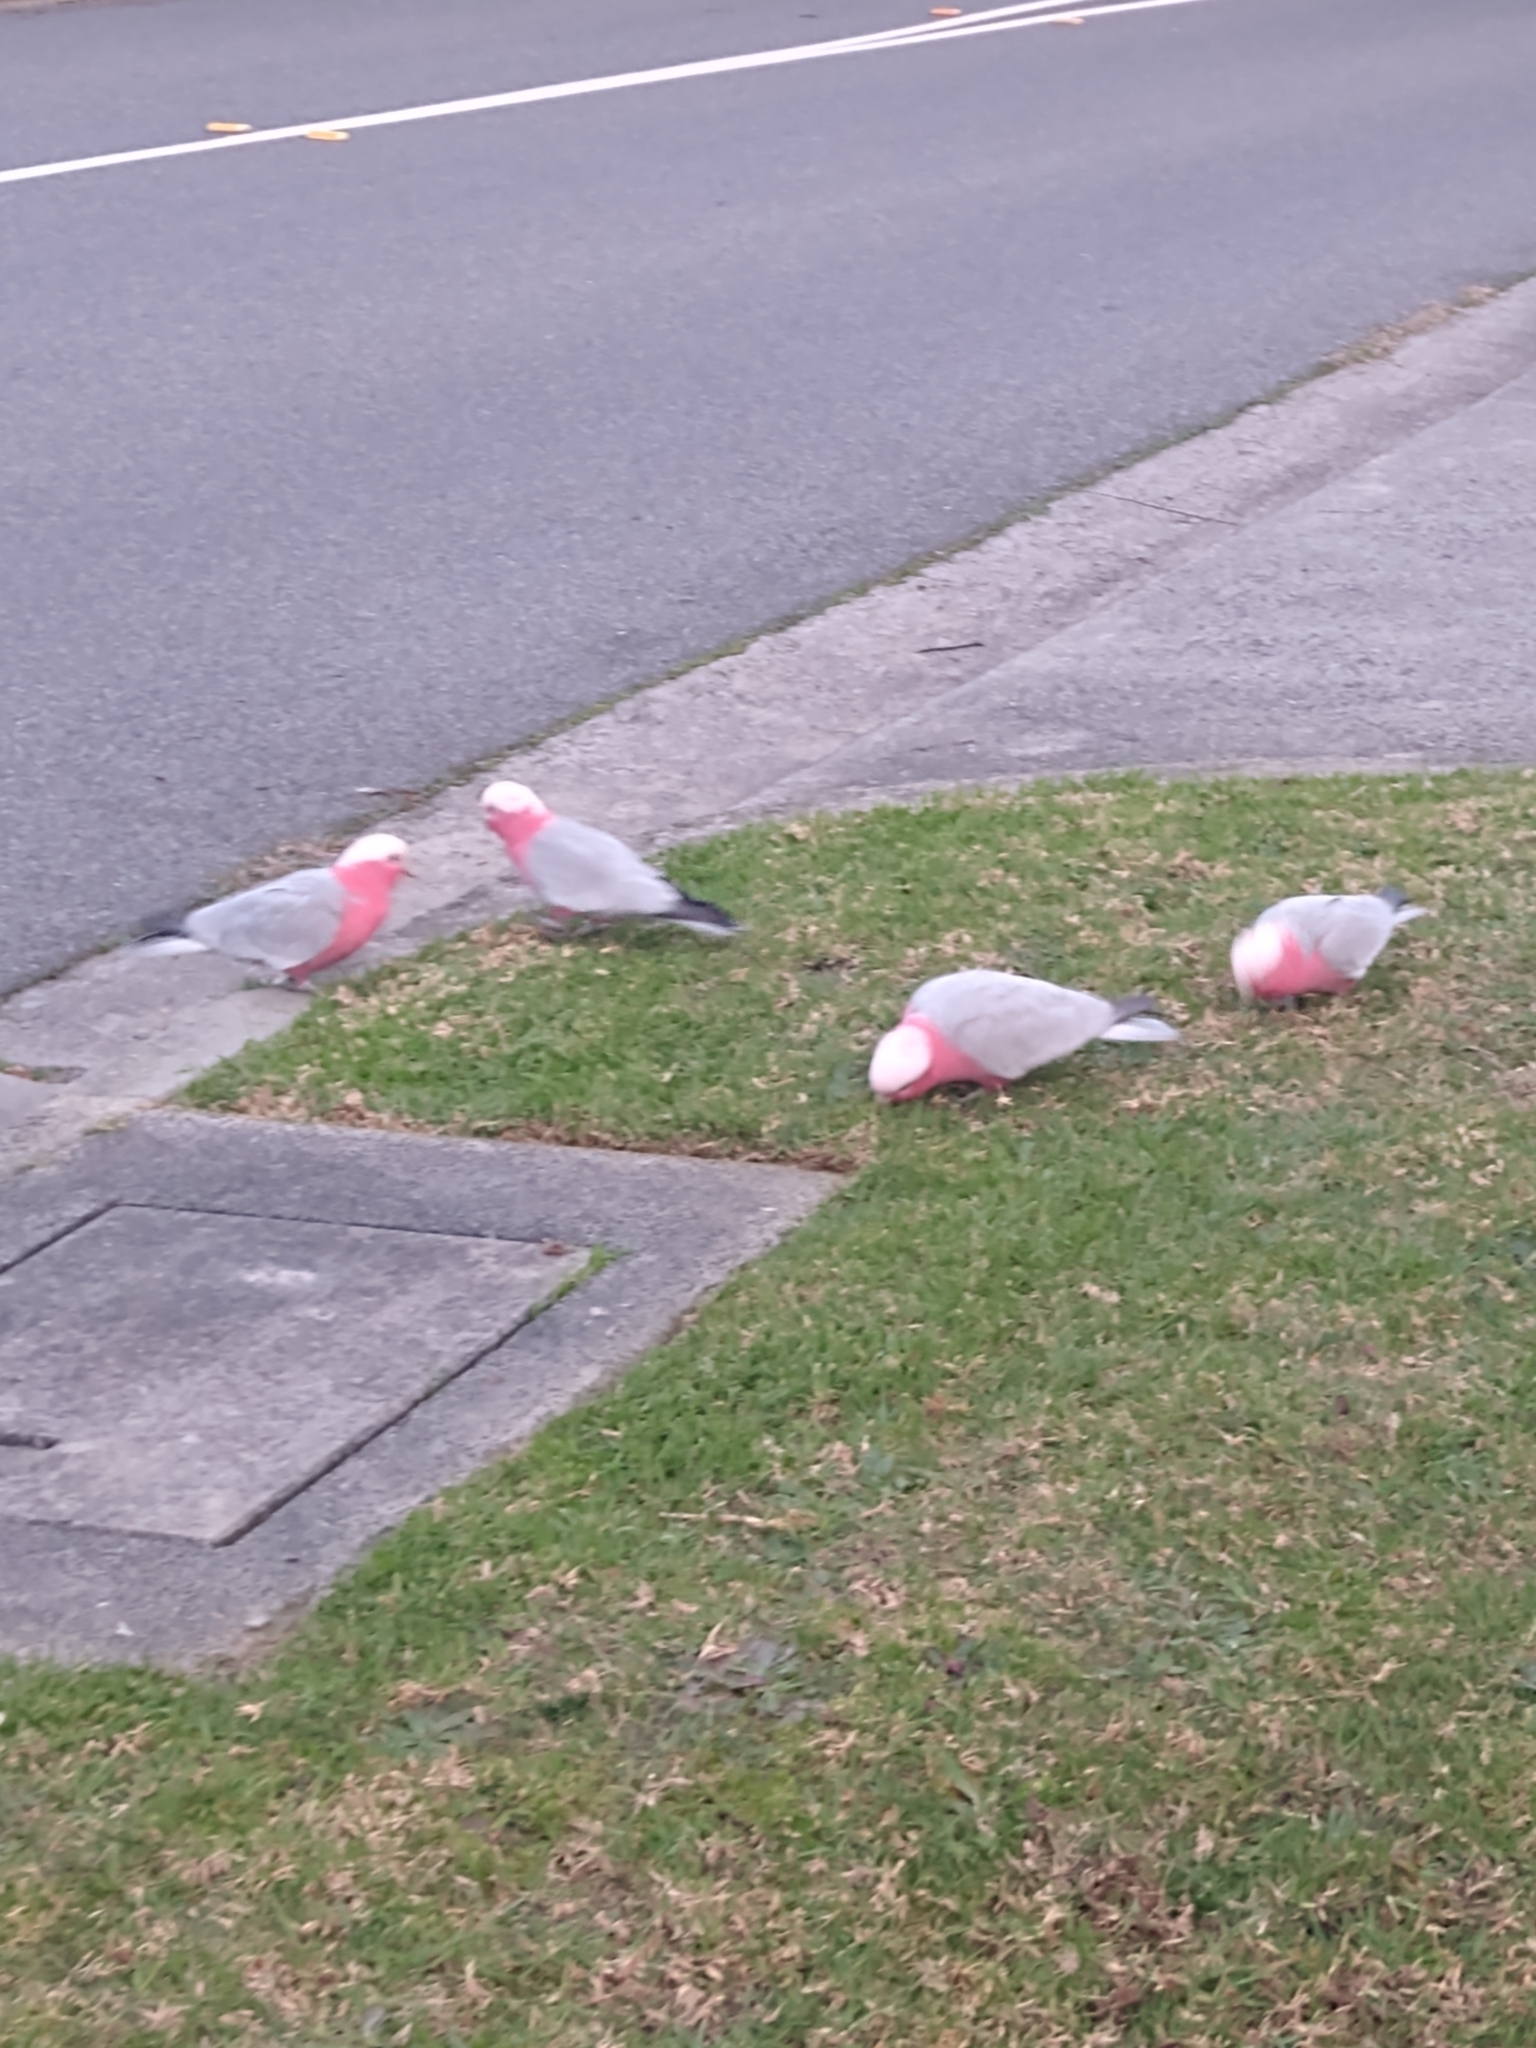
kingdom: Animalia
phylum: Chordata
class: Aves
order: Psittaciformes
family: Psittacidae
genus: Eolophus
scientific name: Eolophus roseicapilla
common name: Galah
